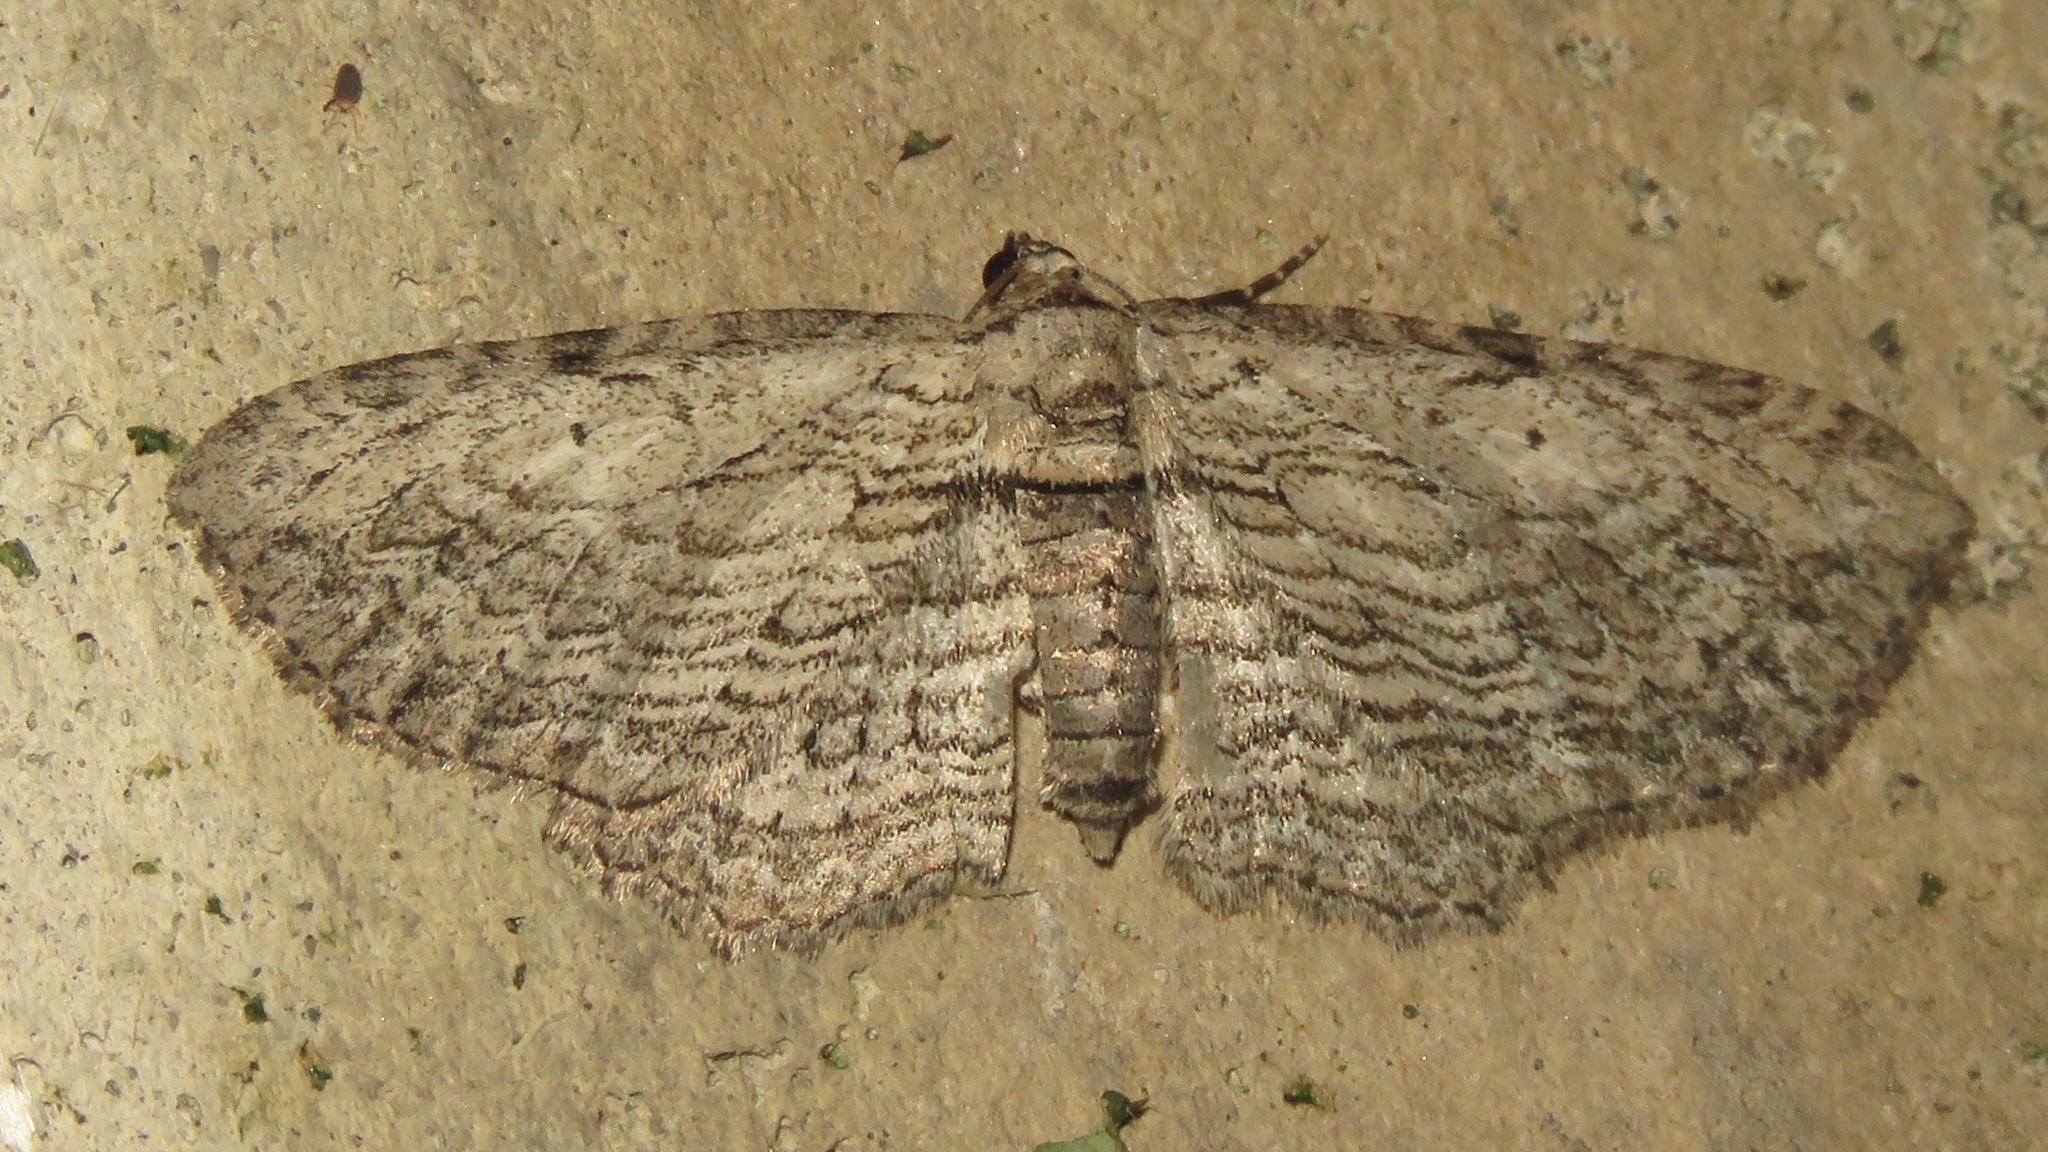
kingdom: Animalia
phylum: Arthropoda
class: Insecta
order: Lepidoptera
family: Geometridae
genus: Horisme
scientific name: Horisme intestinata
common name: Brown bark carpet
